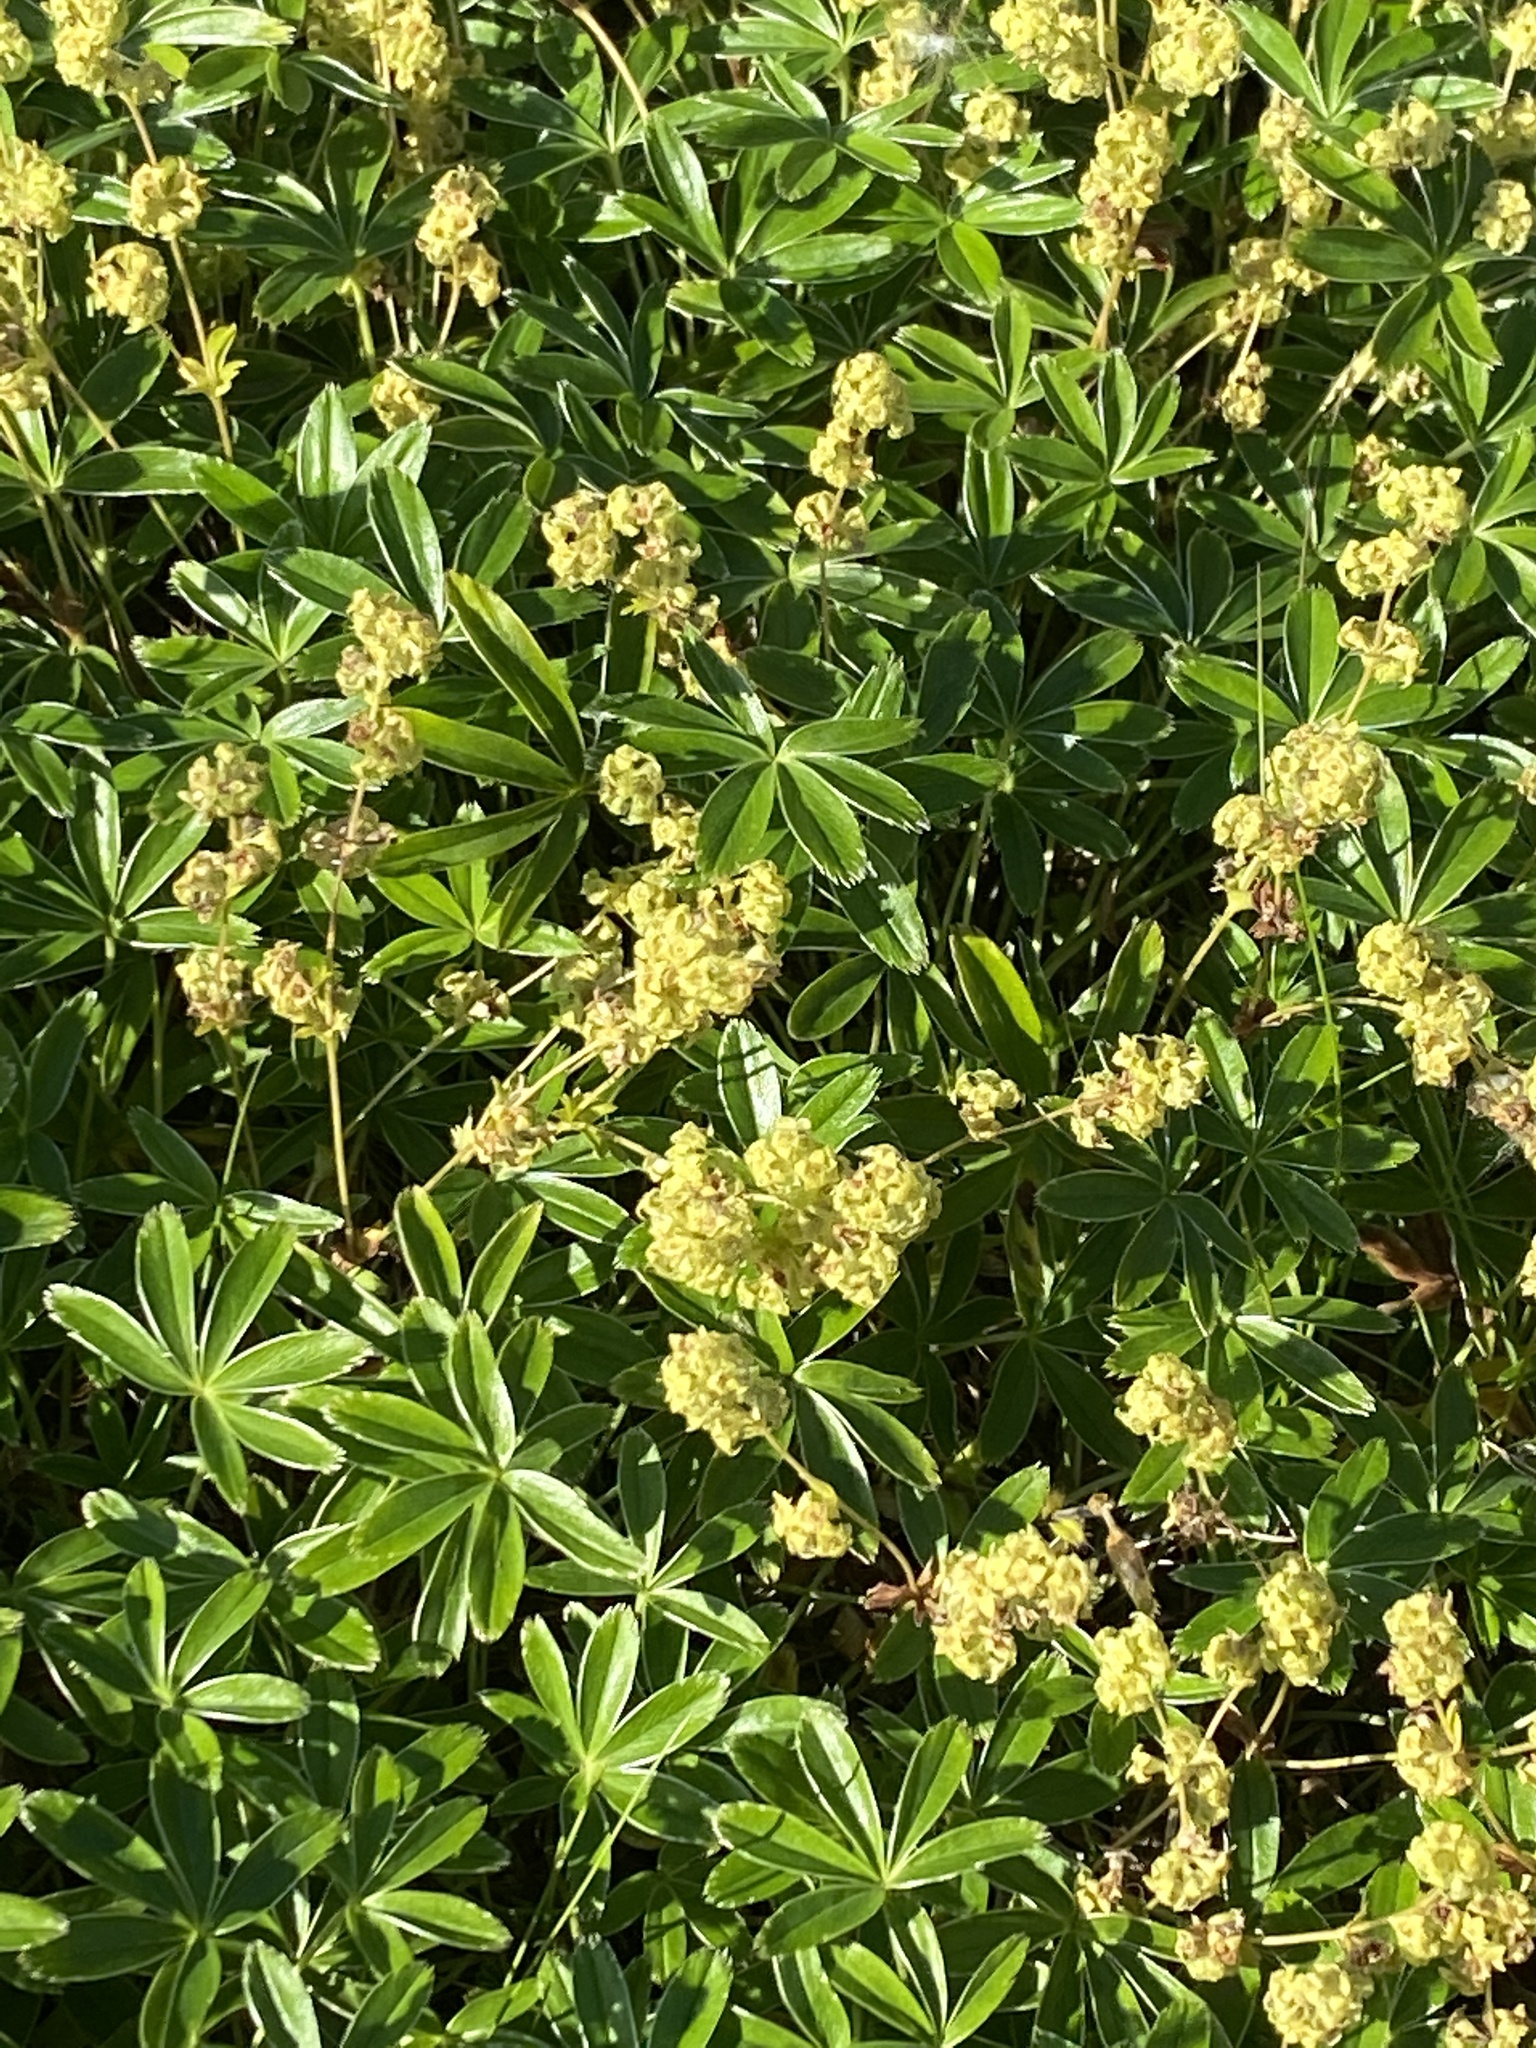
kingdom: Plantae
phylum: Tracheophyta
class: Magnoliopsida
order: Rosales
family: Rosaceae
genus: Alchemilla
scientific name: Alchemilla alpina
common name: Alpine lady's-mantle
